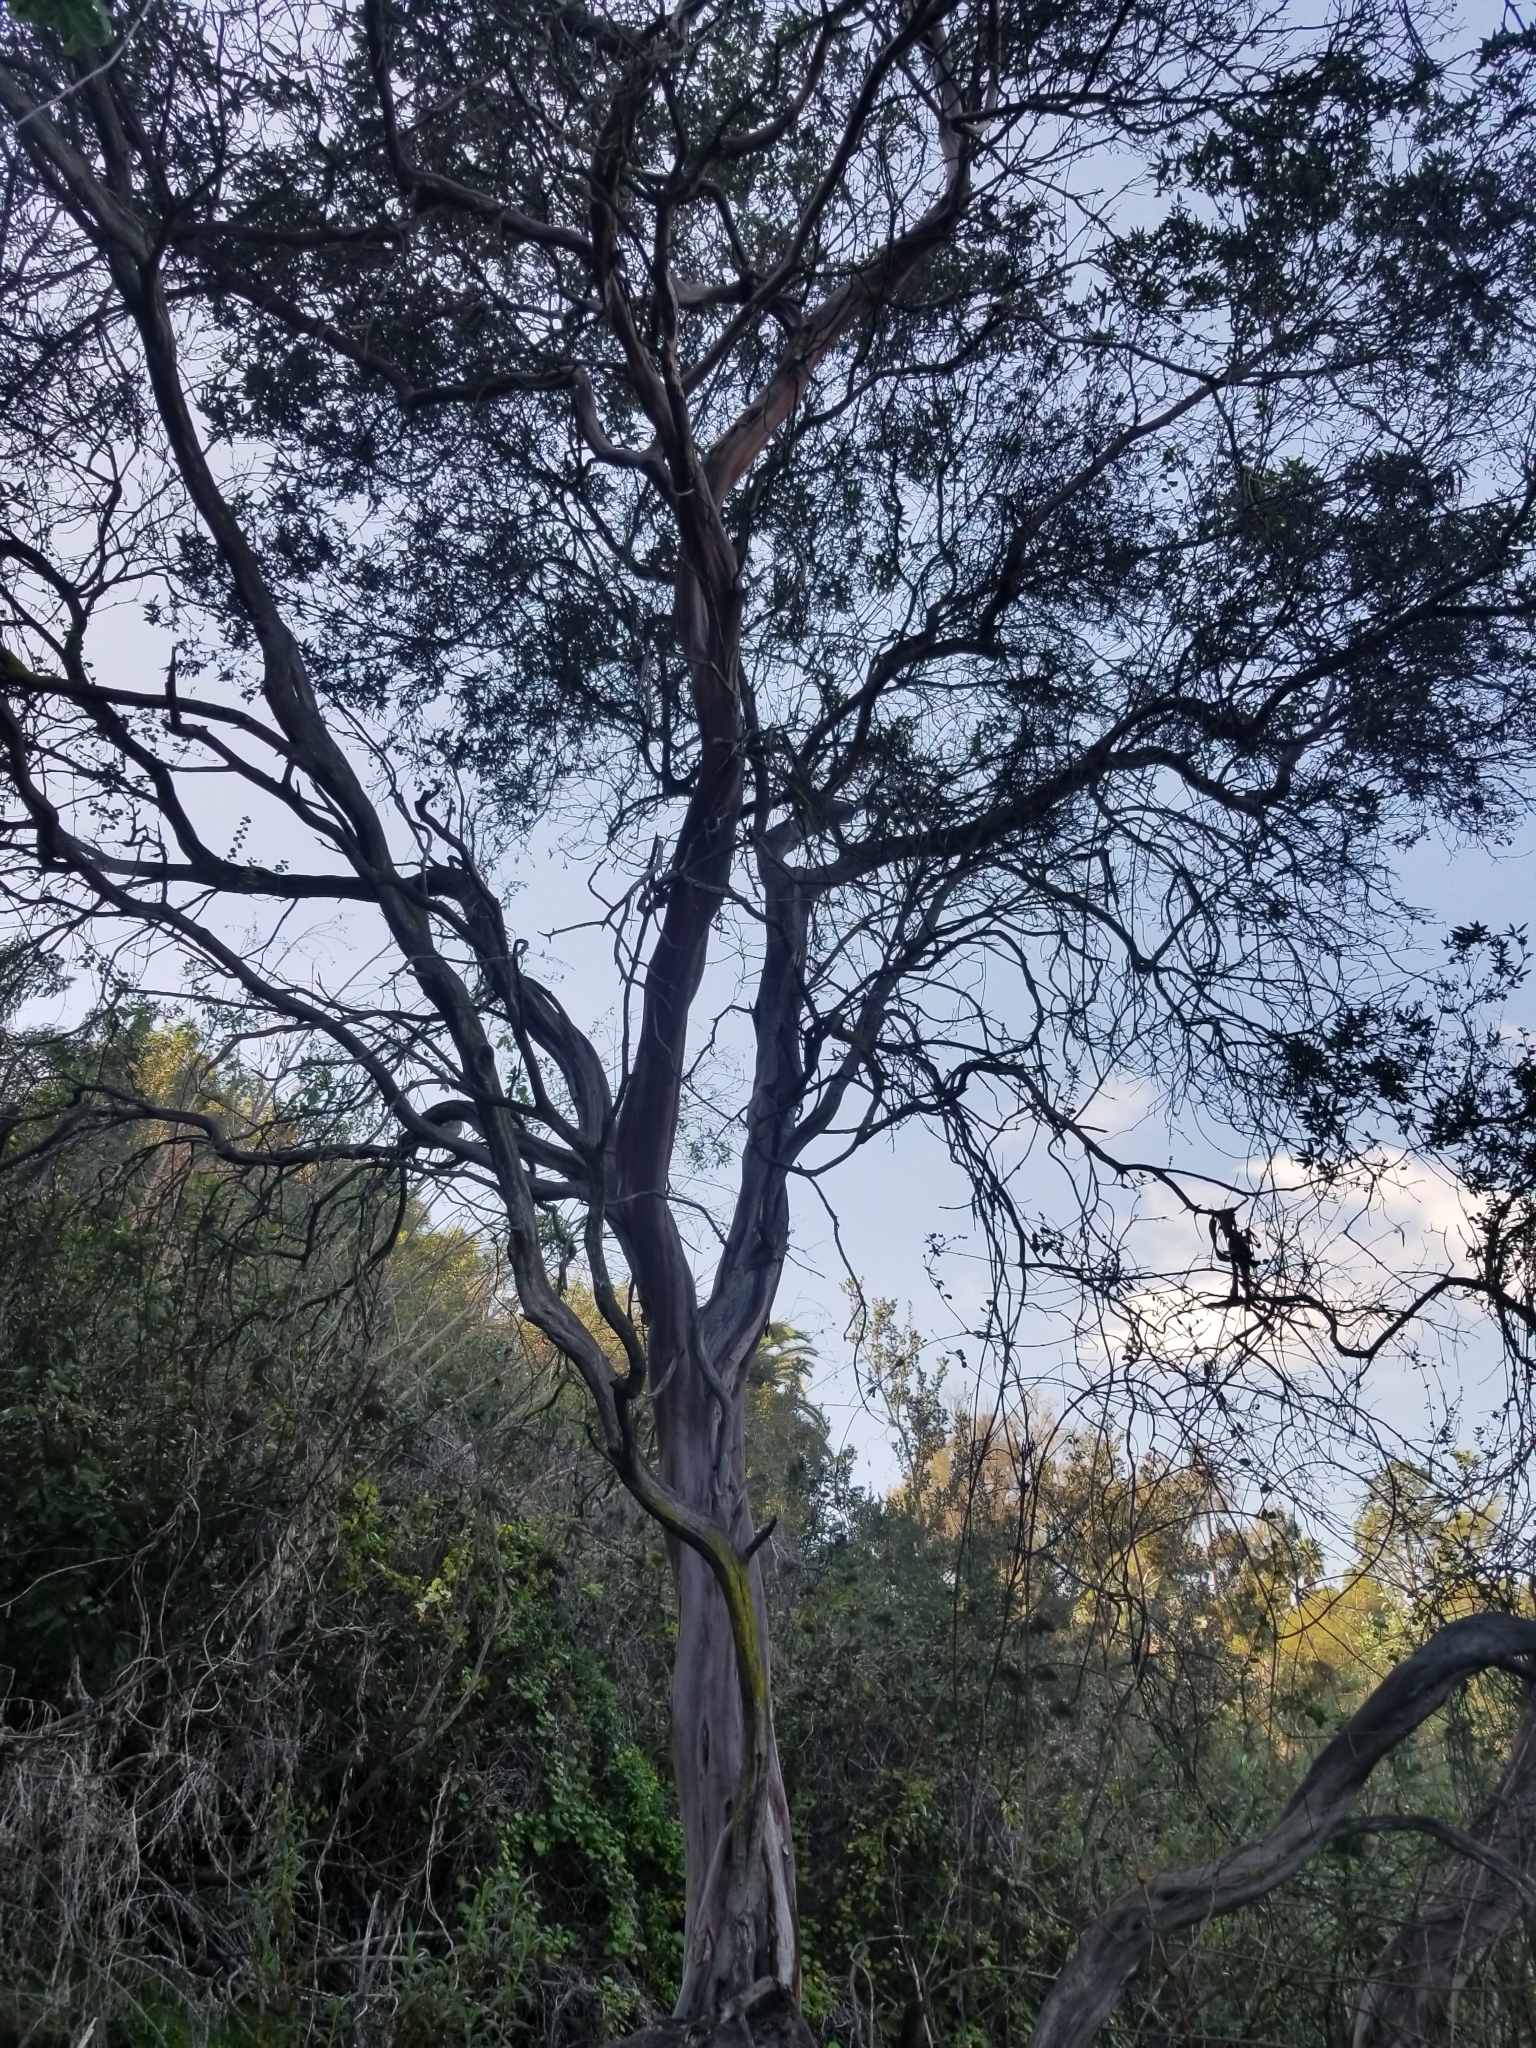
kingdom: Plantae
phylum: Tracheophyta
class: Magnoliopsida
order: Ericales
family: Ericaceae
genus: Arctostaphylos
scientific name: Arctostaphylos bicolor
